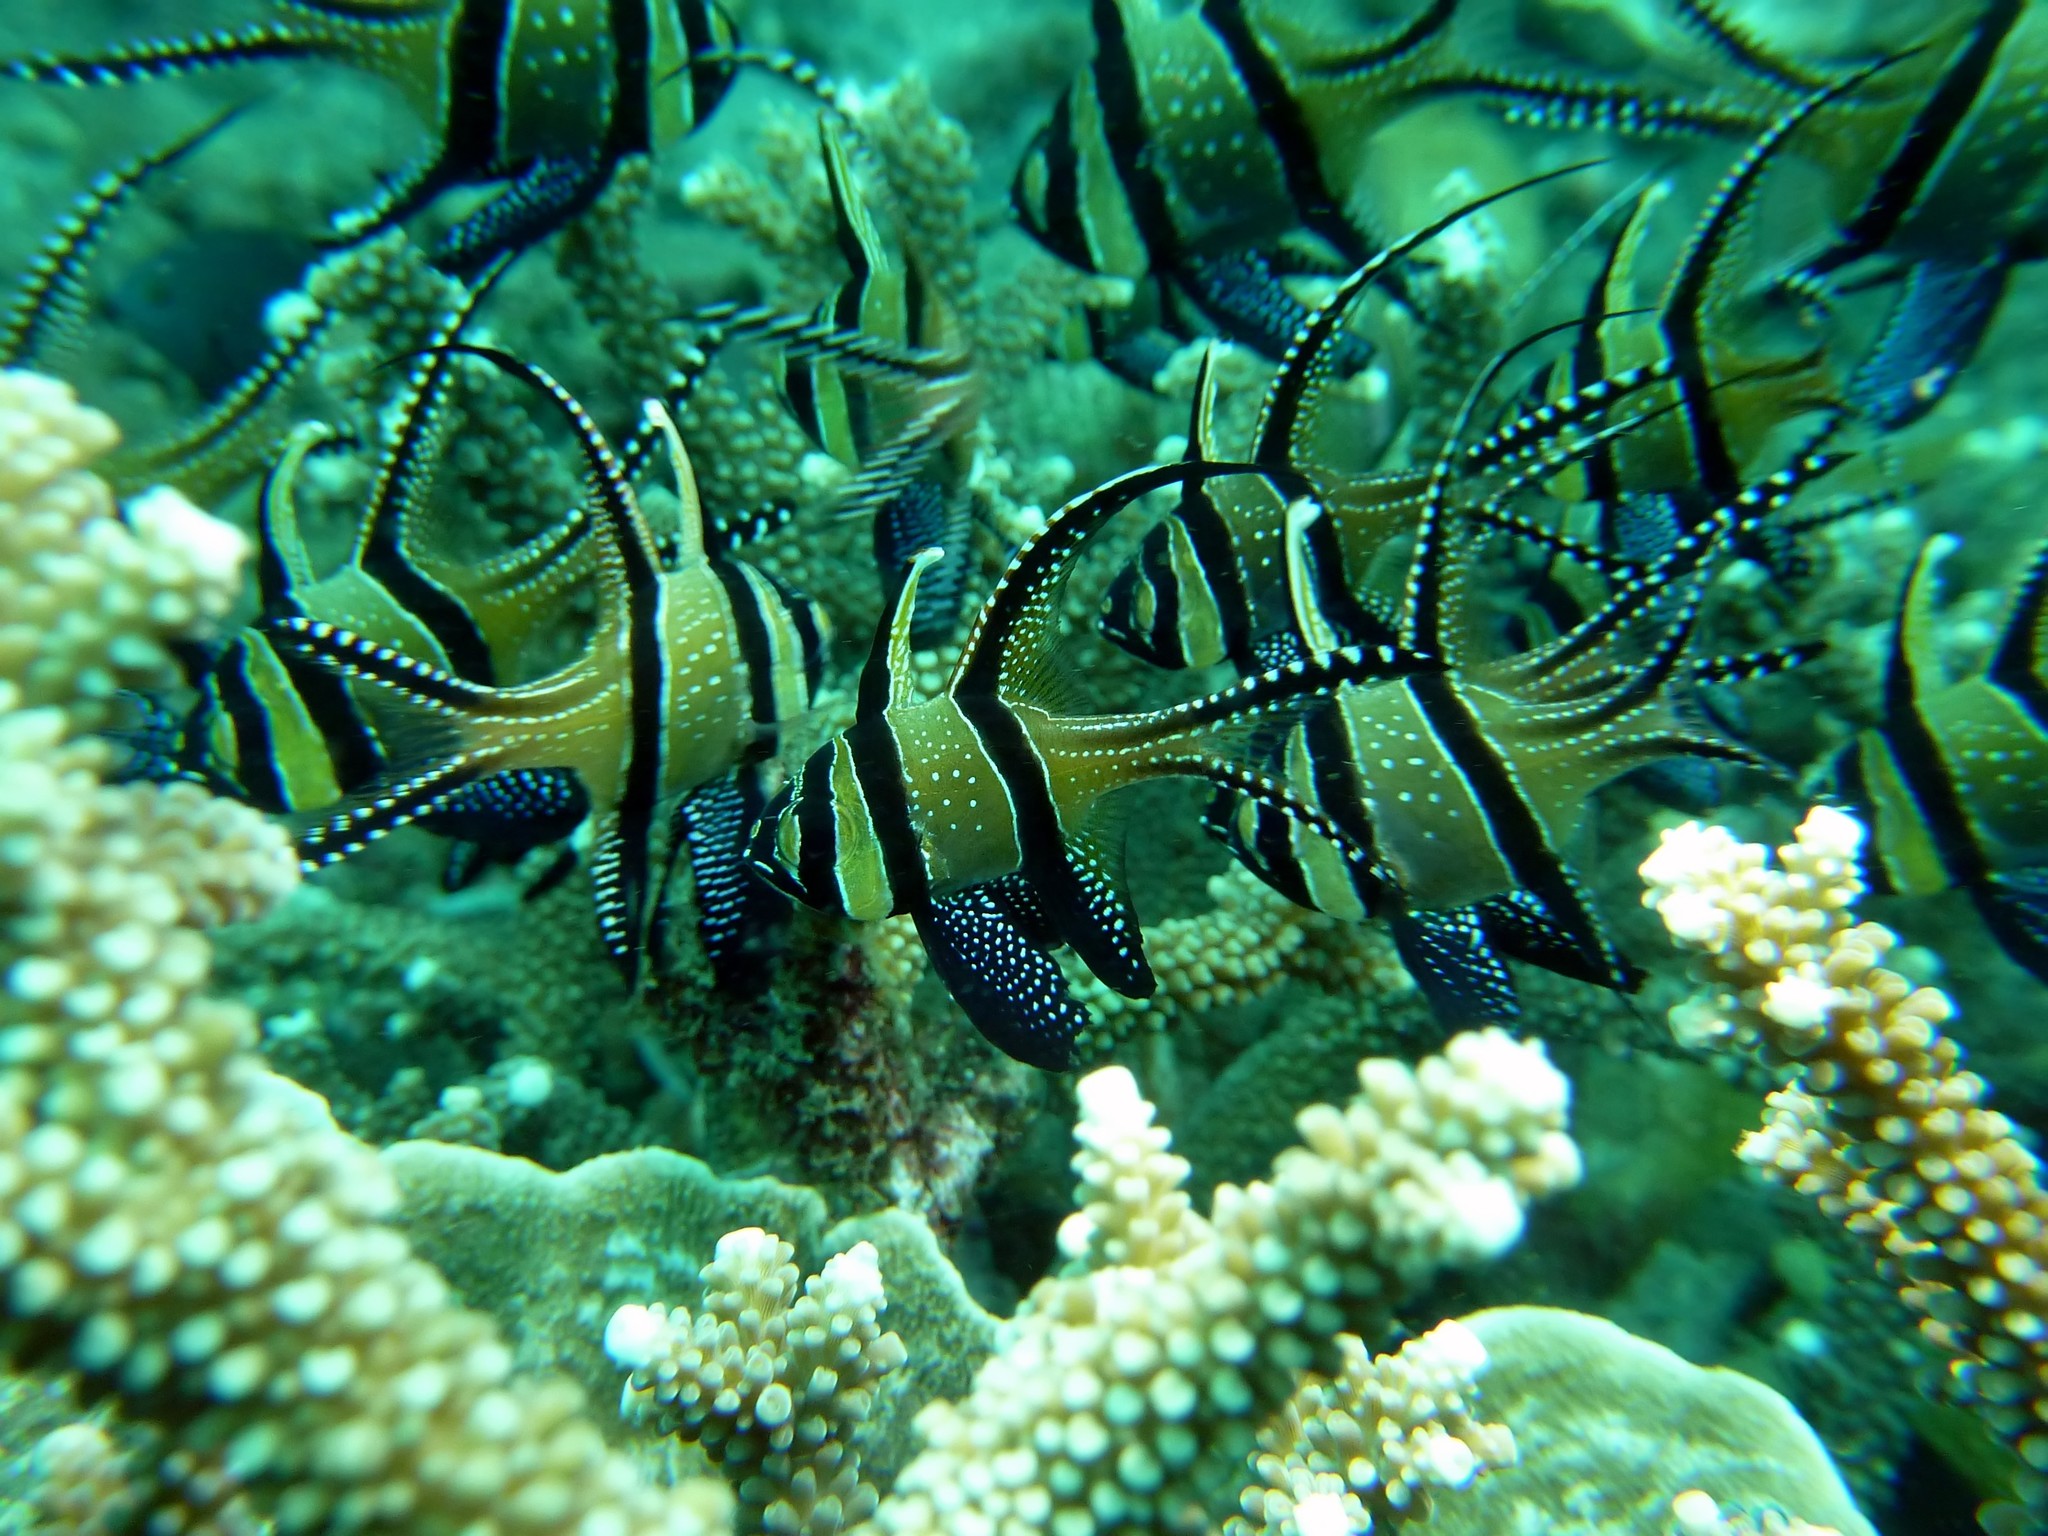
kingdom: Animalia
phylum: Chordata
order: Perciformes
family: Apogonidae
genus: Pterapogon
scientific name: Pterapogon kauderni
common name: Banggai cardinalfish
